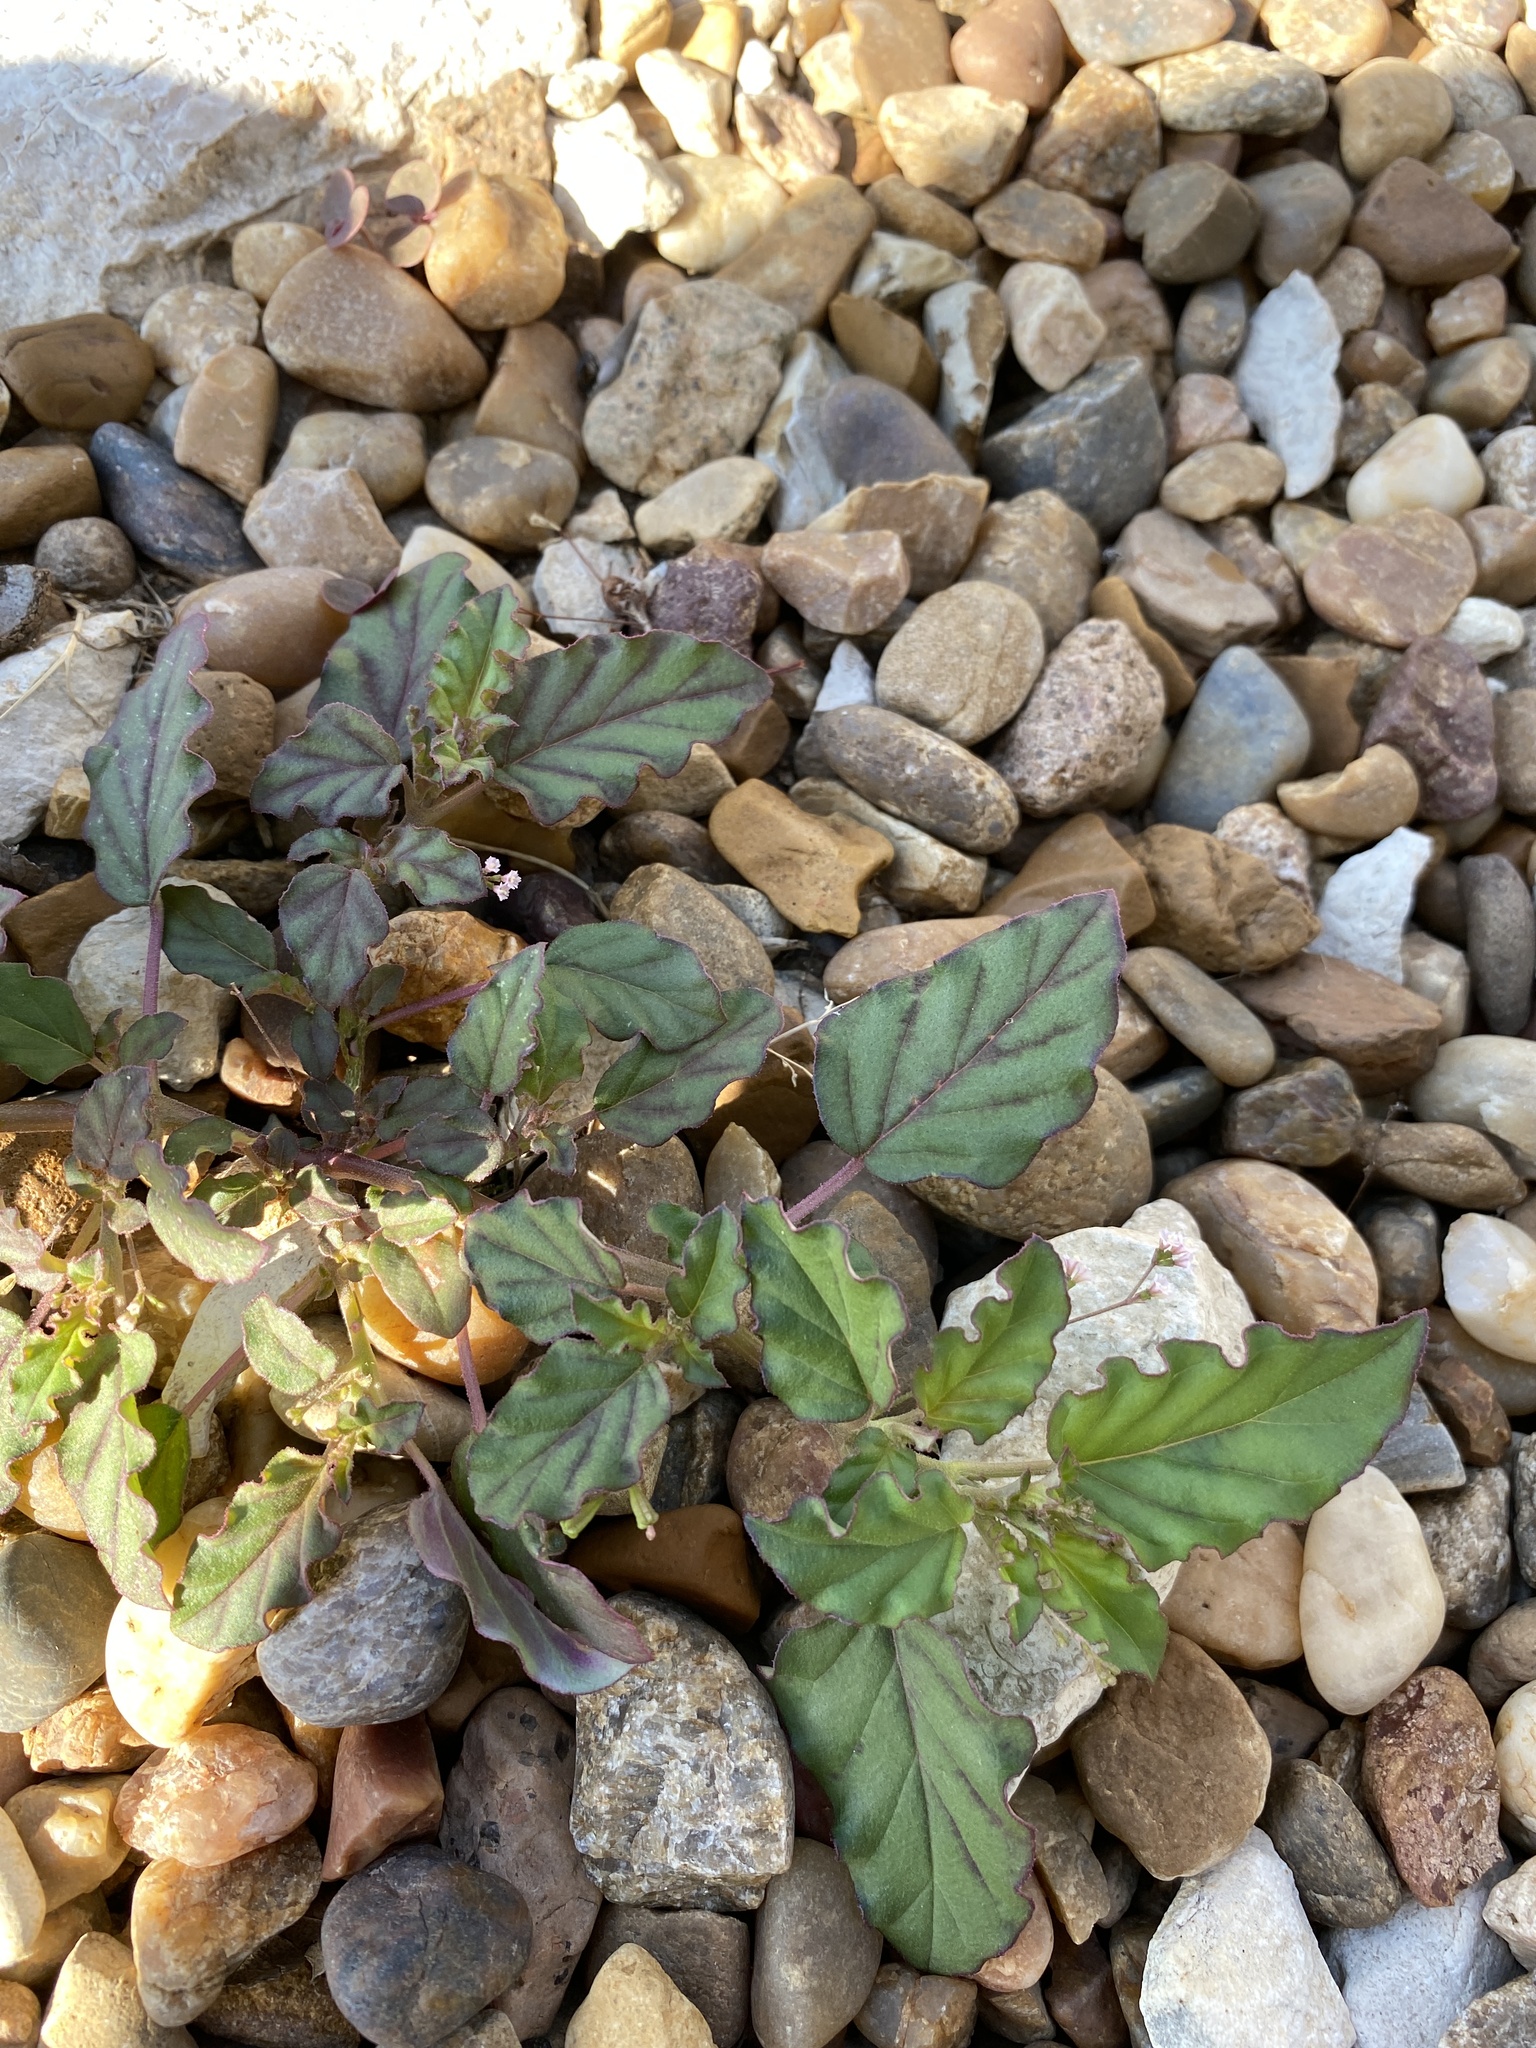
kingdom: Plantae
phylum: Tracheophyta
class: Magnoliopsida
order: Caryophyllales
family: Nyctaginaceae
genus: Boerhavia
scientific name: Boerhavia erecta
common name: Erect spiderling
